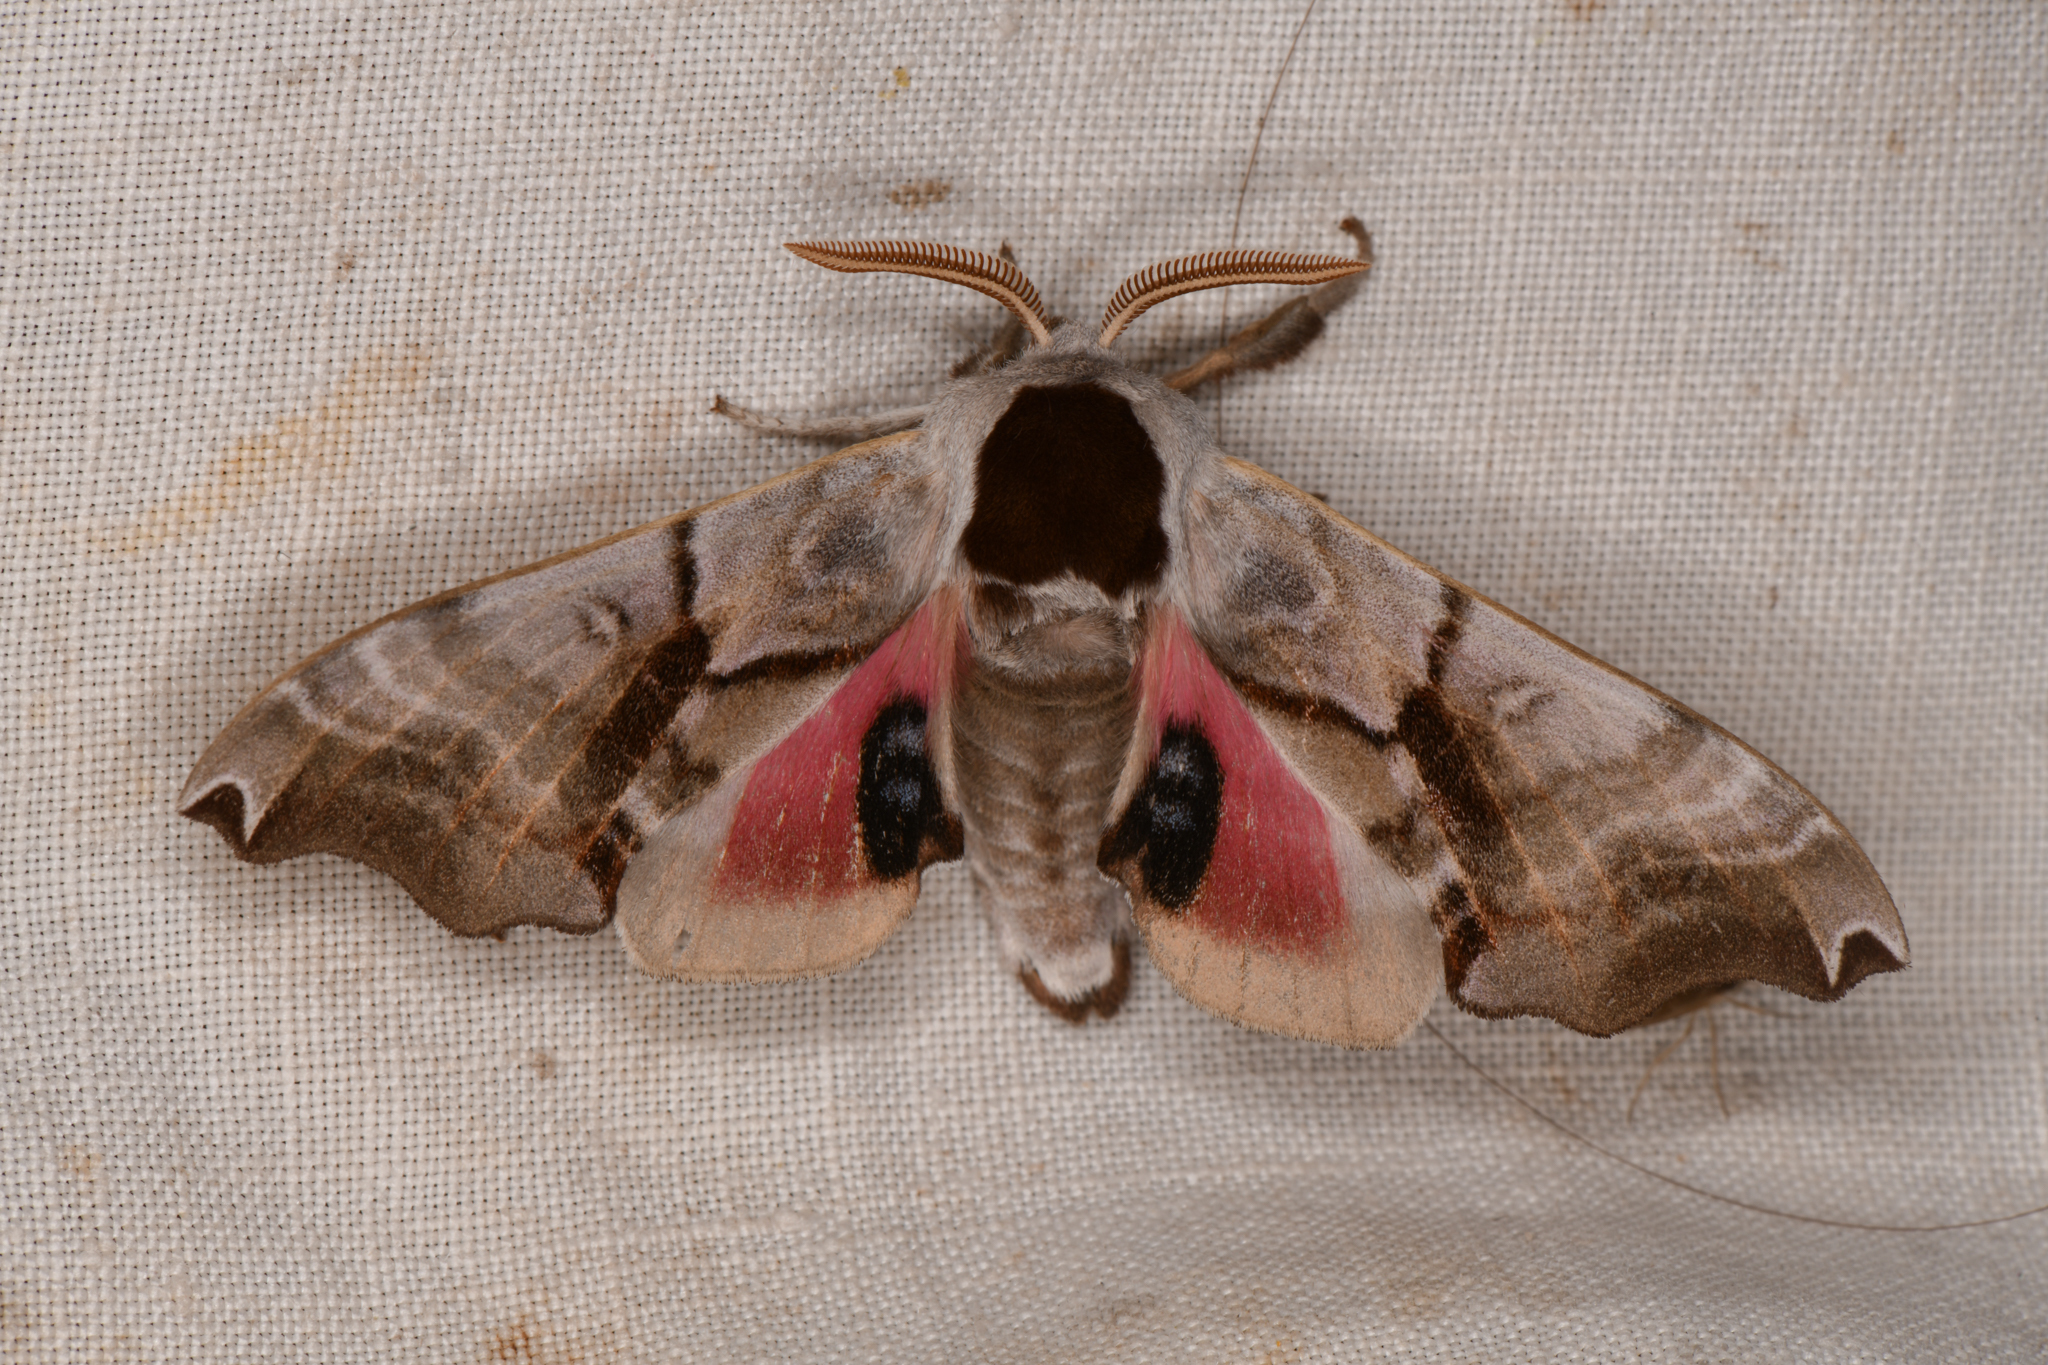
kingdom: Animalia
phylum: Arthropoda
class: Insecta
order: Lepidoptera
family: Sphingidae
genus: Smerinthus
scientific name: Smerinthus jamaicensis
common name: Twin spotted sphinx
